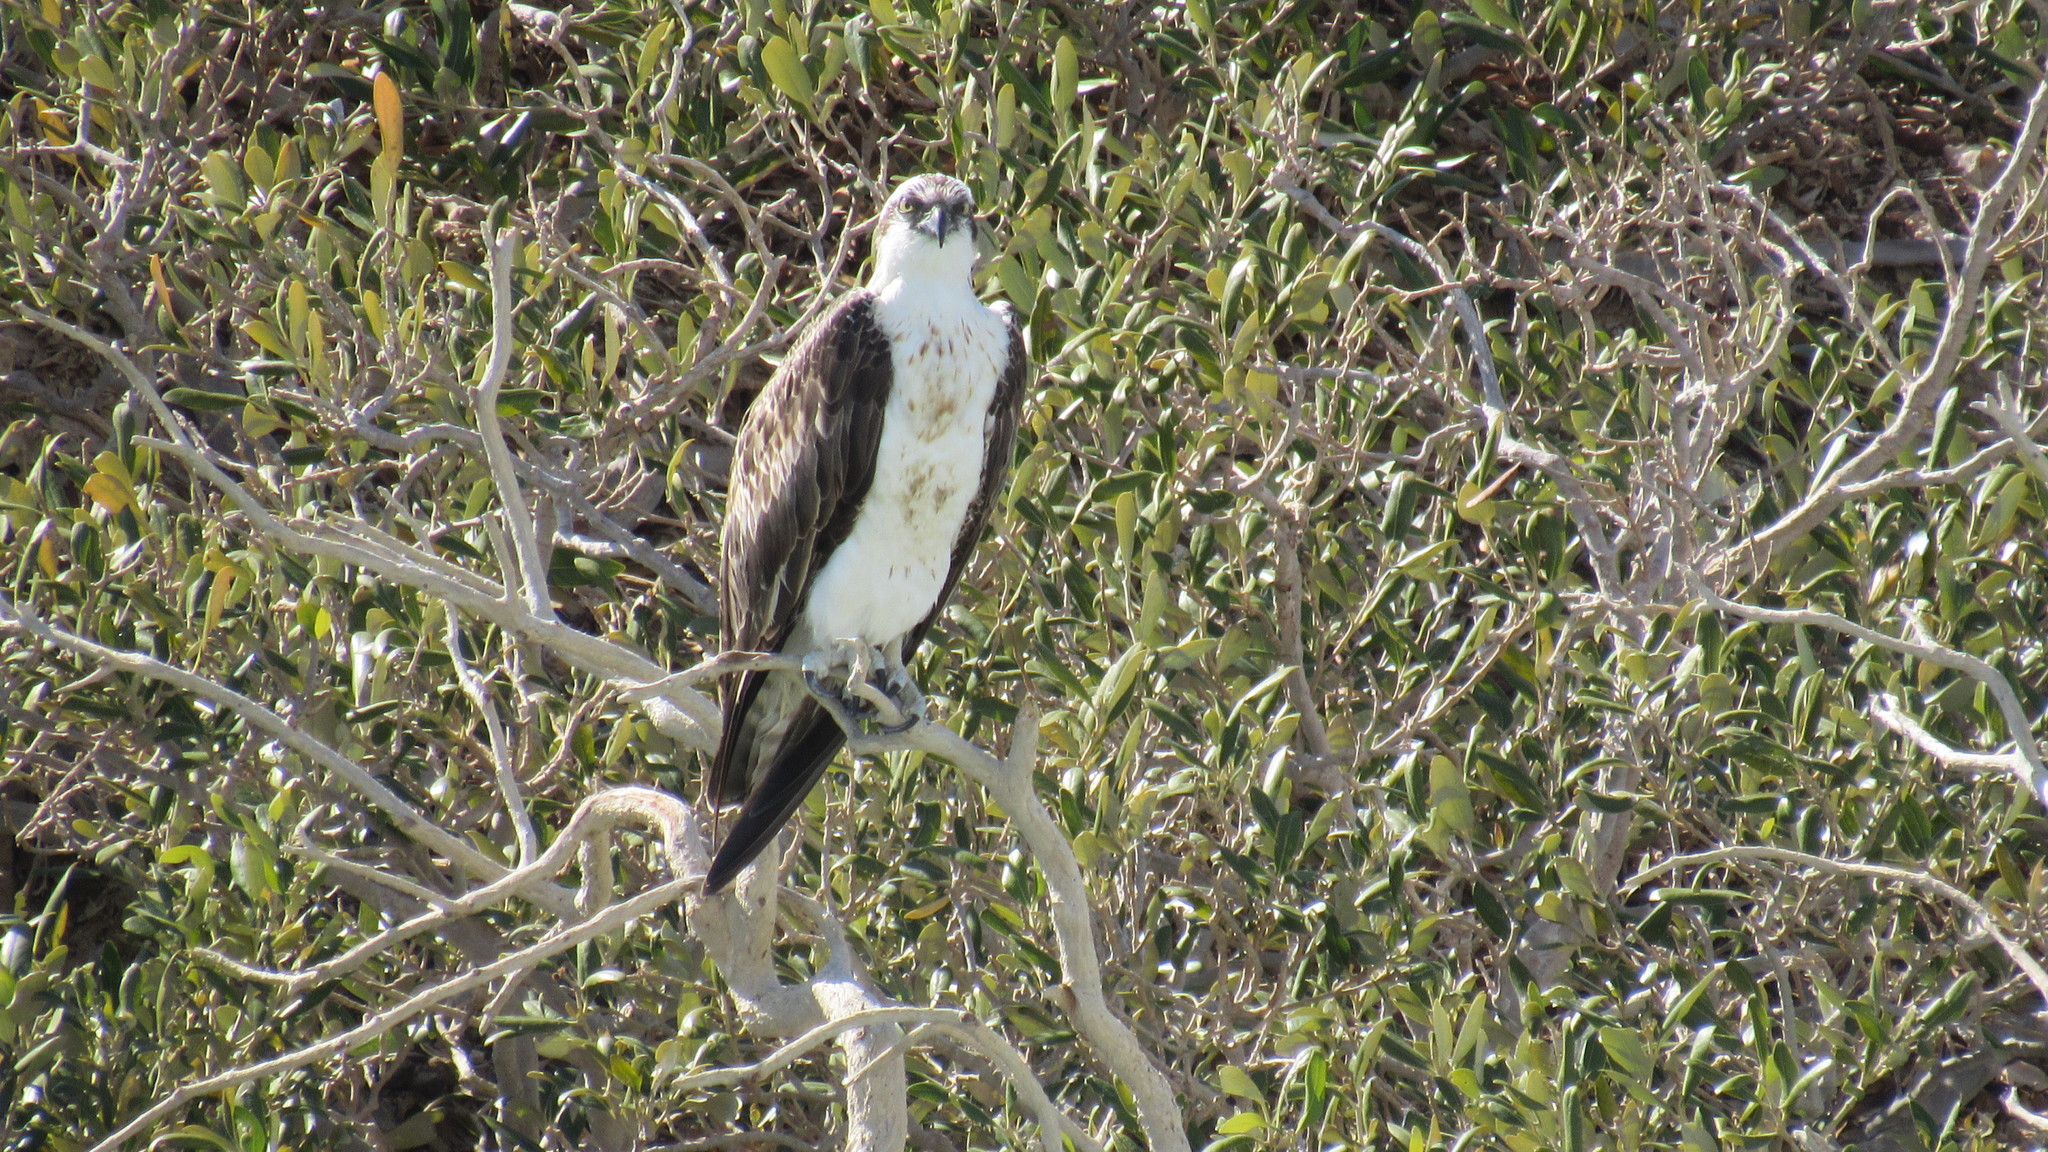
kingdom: Animalia
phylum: Chordata
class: Aves
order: Accipitriformes
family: Pandionidae
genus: Pandion
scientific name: Pandion haliaetus
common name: Osprey
